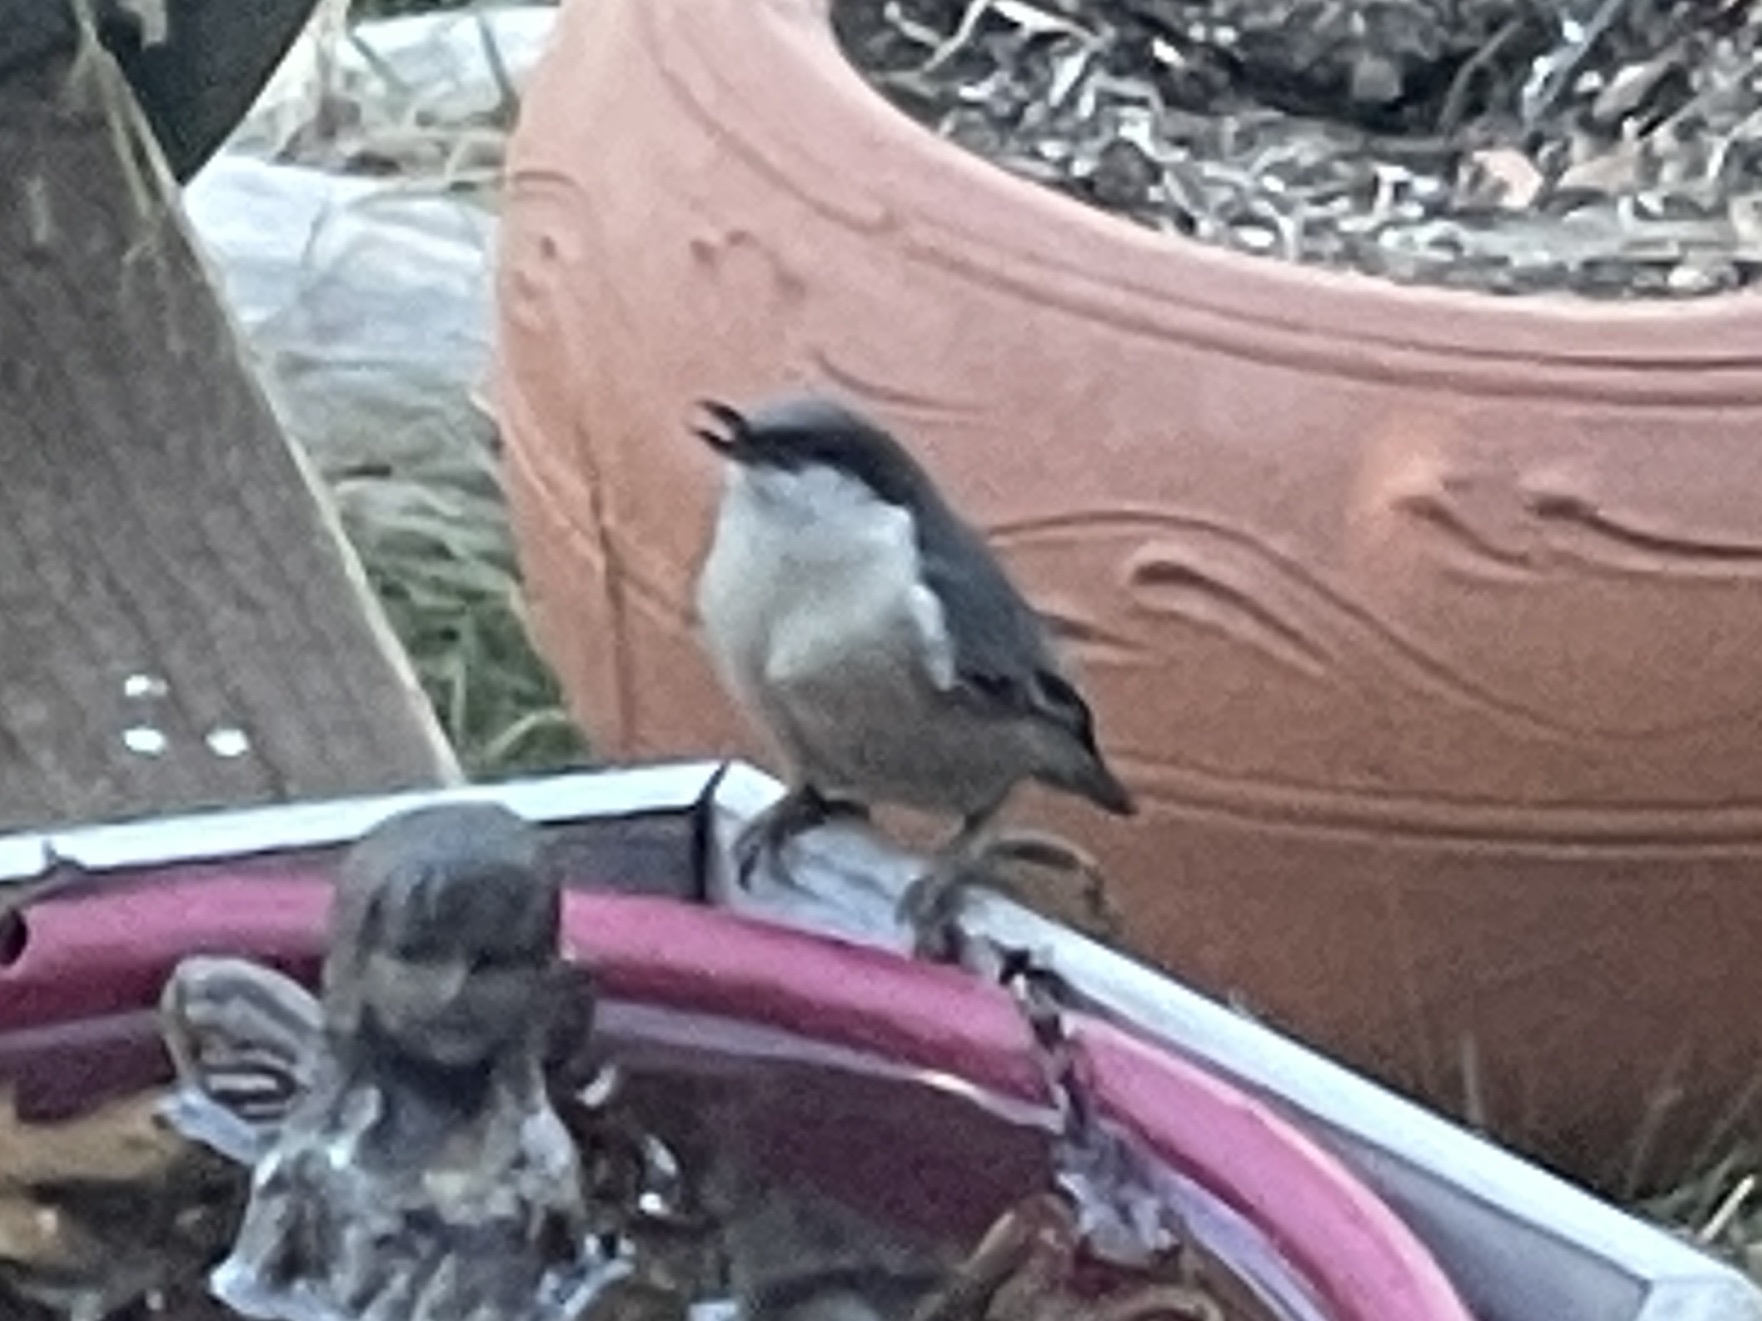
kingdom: Animalia
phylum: Chordata
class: Aves
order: Passeriformes
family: Sittidae
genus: Sitta
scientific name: Sitta pygmaea
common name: Pygmy nuthatch
